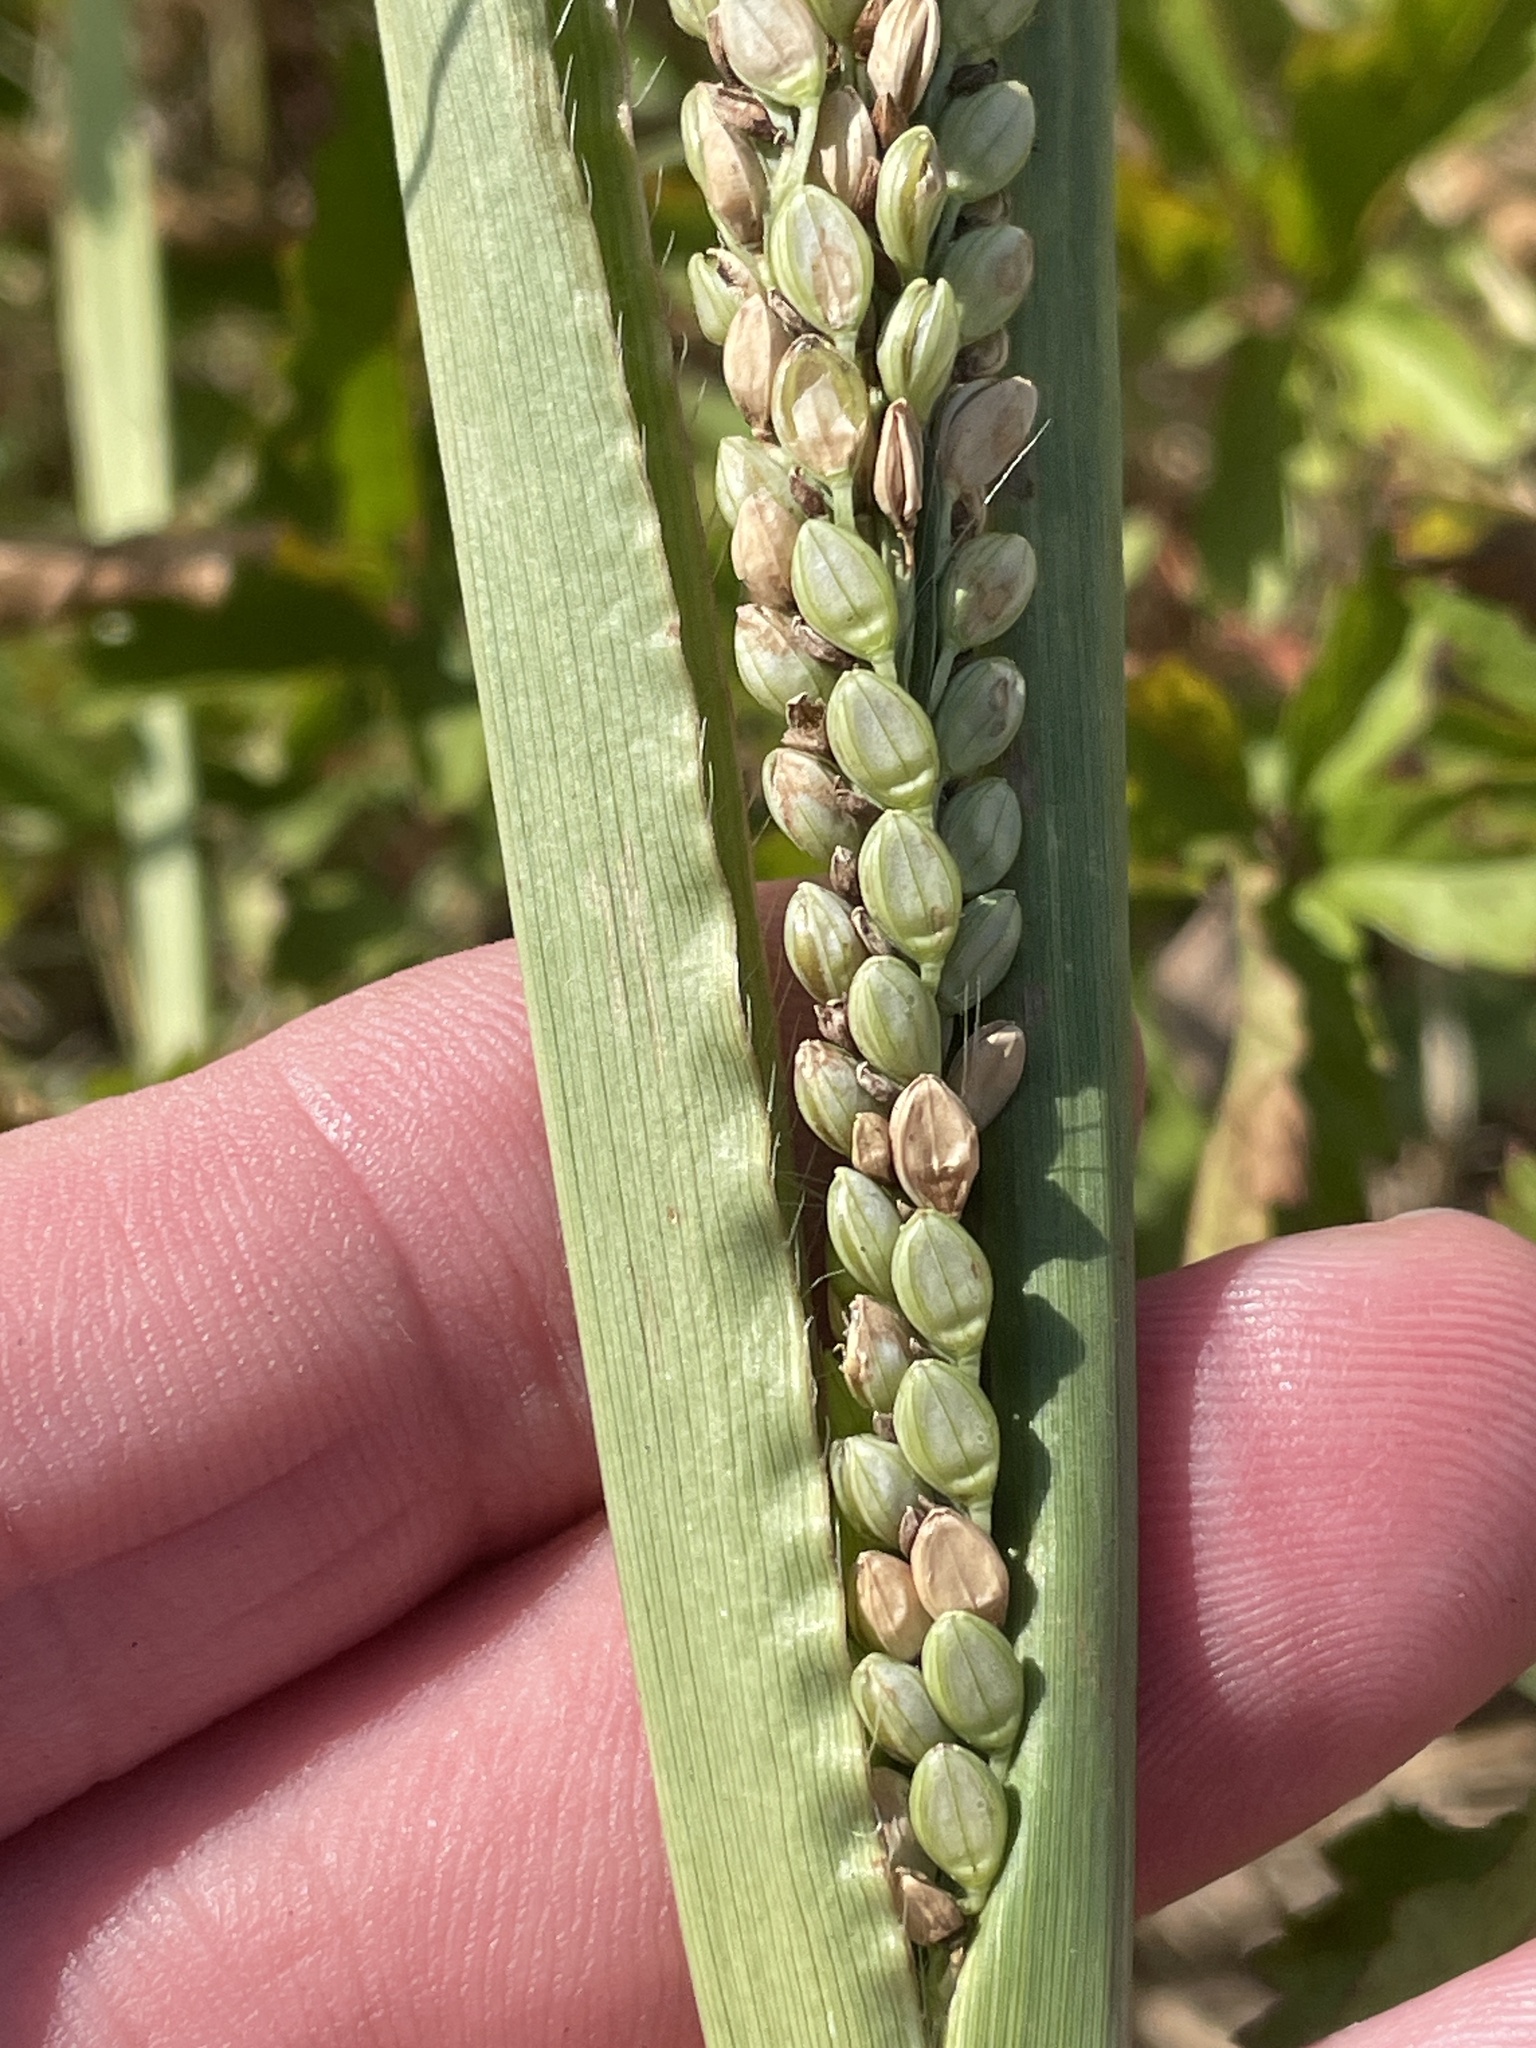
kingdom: Plantae
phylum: Tracheophyta
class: Liliopsida
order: Poales
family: Poaceae
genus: Paspalum
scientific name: Paspalum plicatulum
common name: Top paspalum
